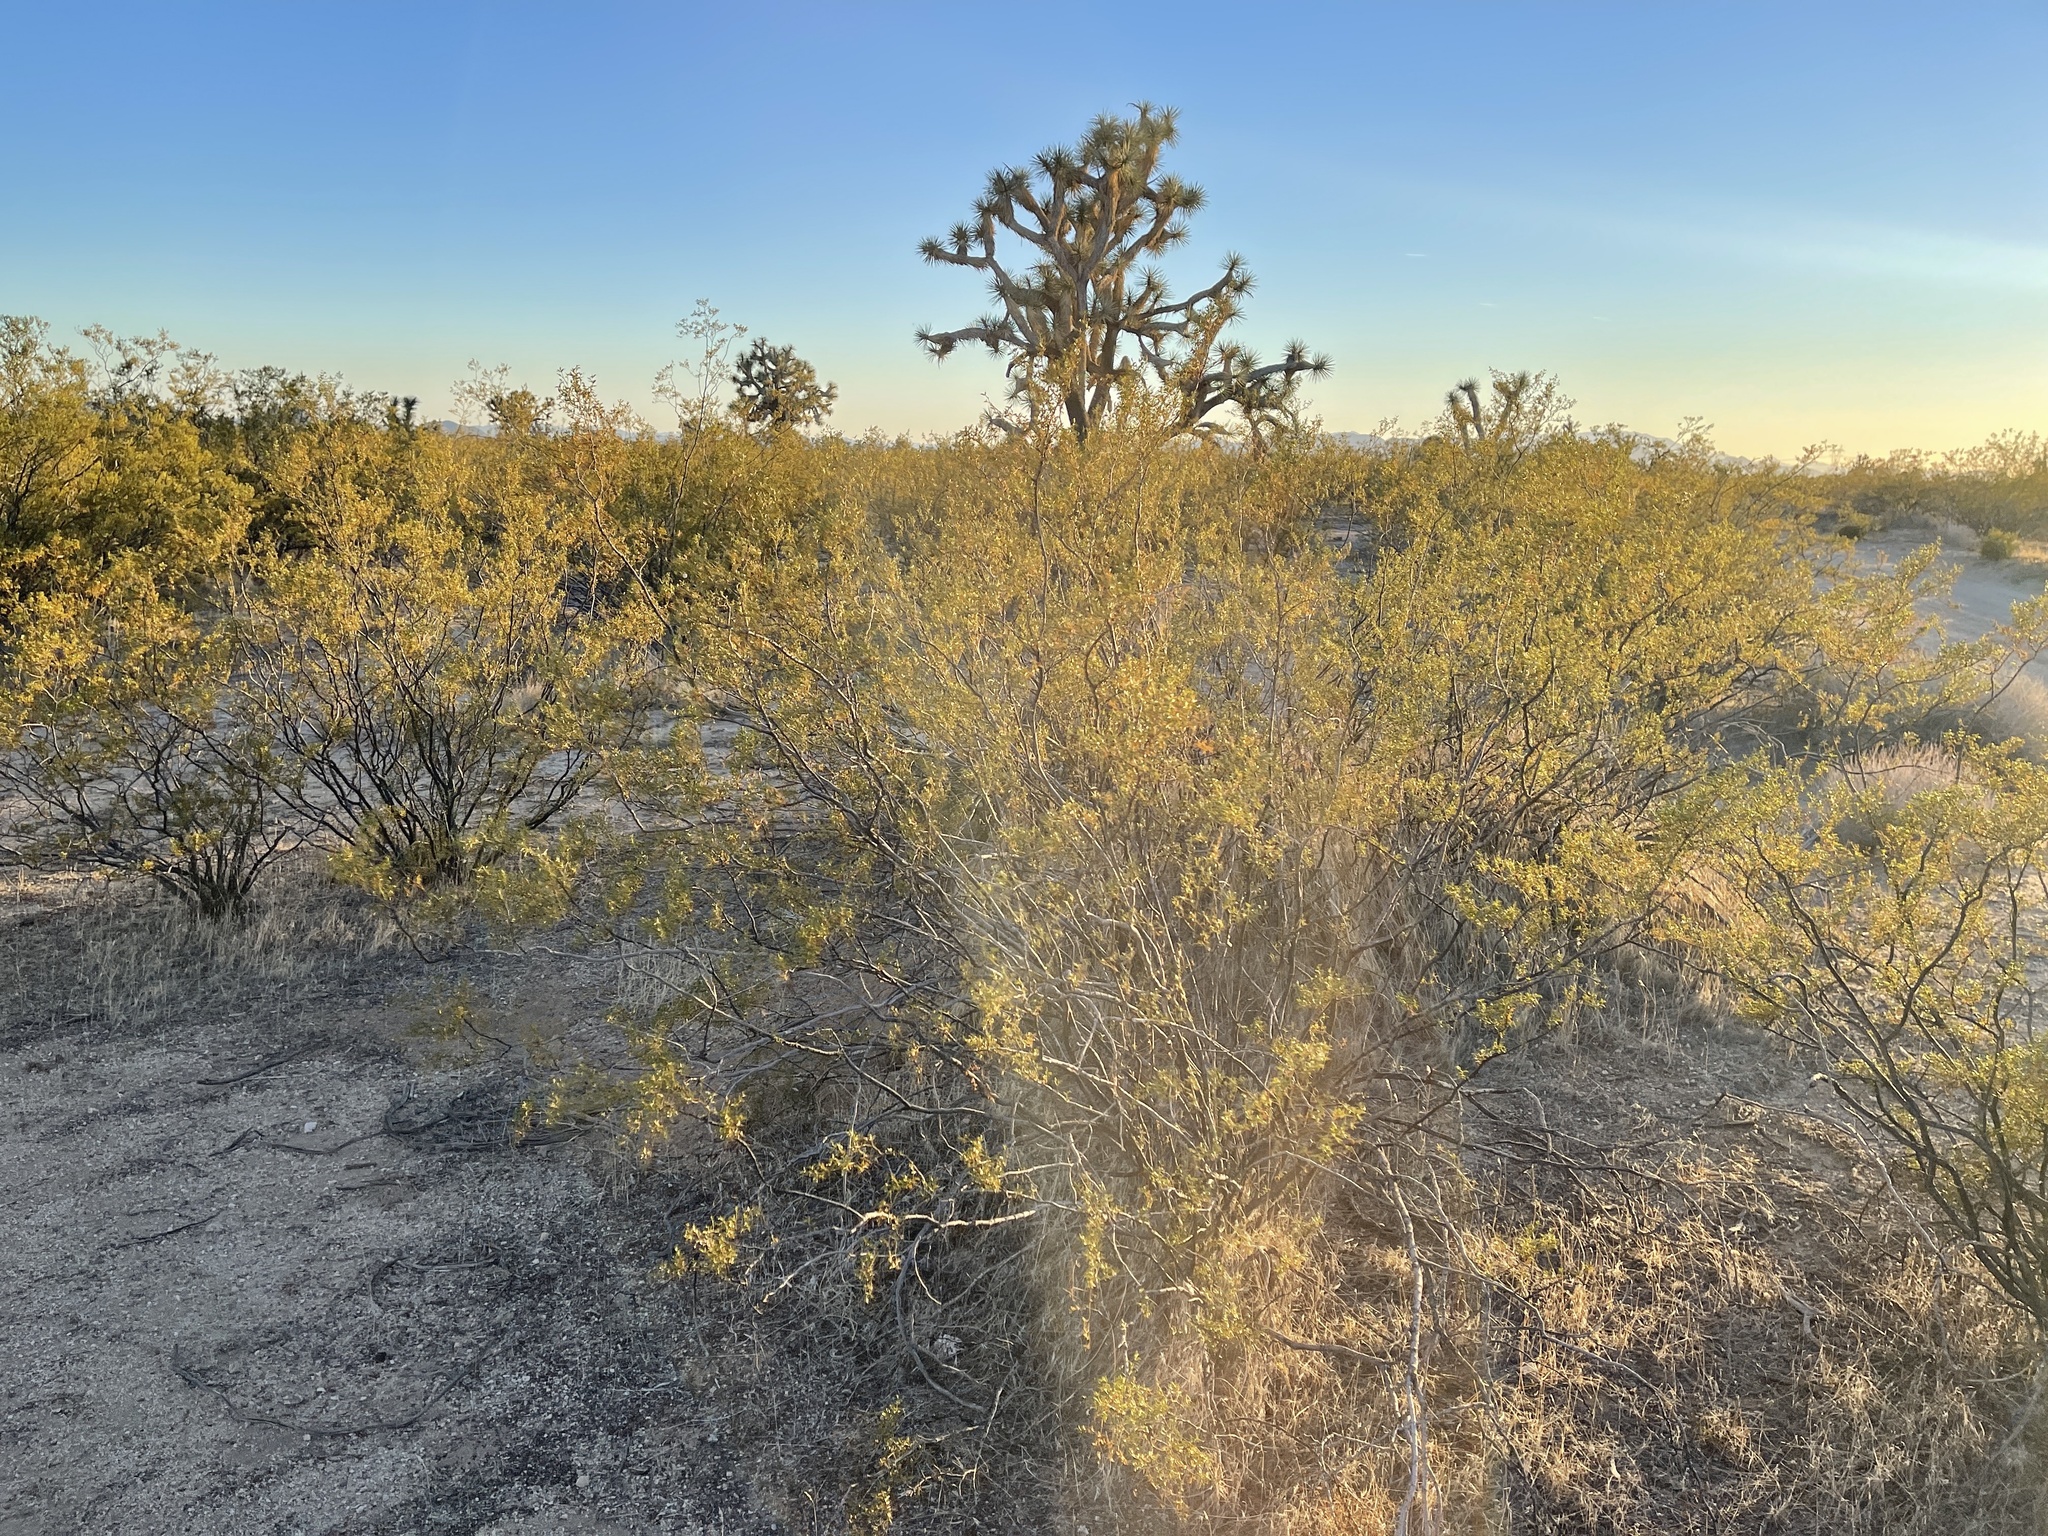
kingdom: Plantae
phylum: Tracheophyta
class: Magnoliopsida
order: Zygophyllales
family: Zygophyllaceae
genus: Larrea
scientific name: Larrea tridentata
